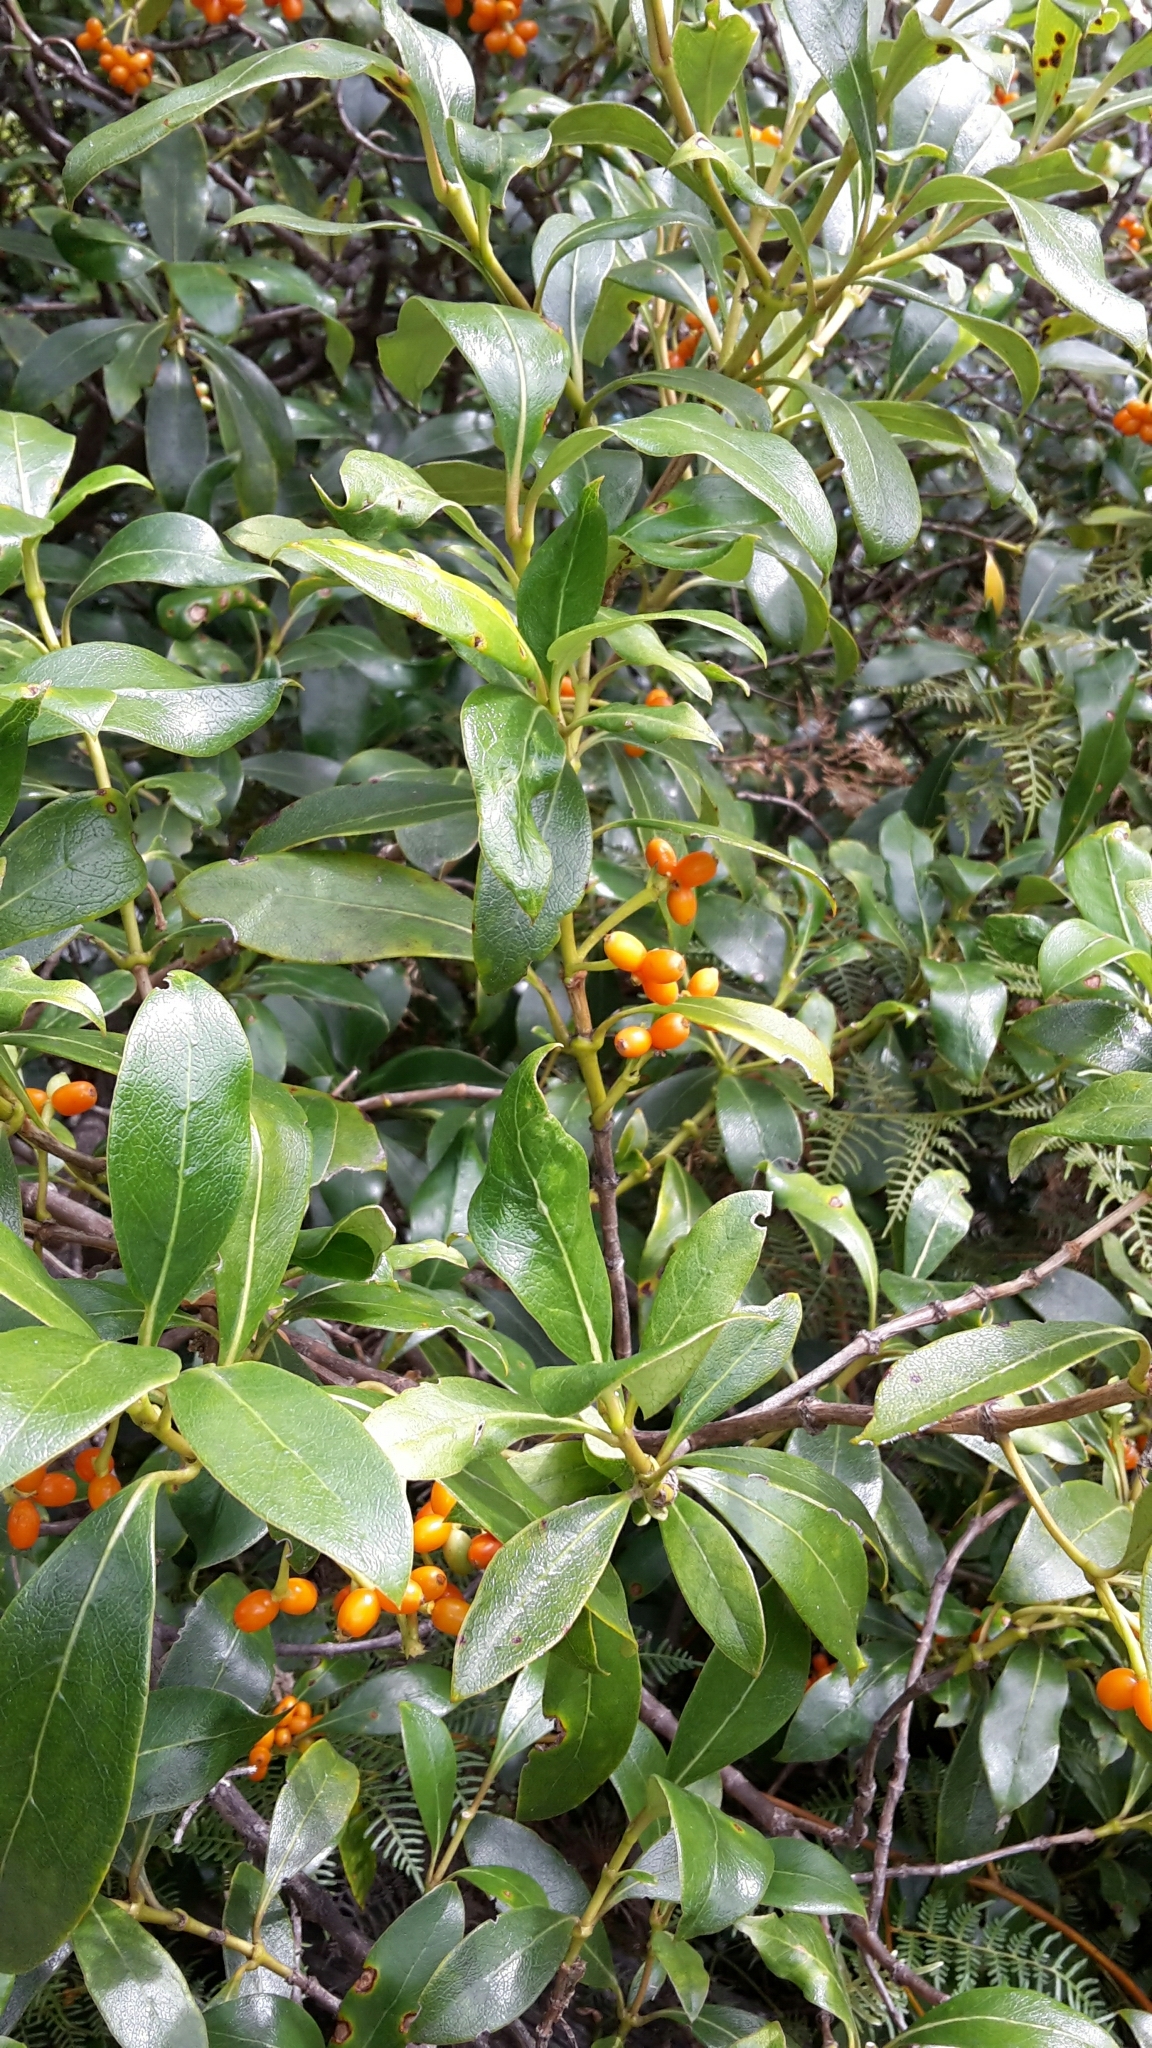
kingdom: Plantae
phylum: Tracheophyta
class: Magnoliopsida
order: Gentianales
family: Rubiaceae
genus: Coprosma
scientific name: Coprosma lucida
